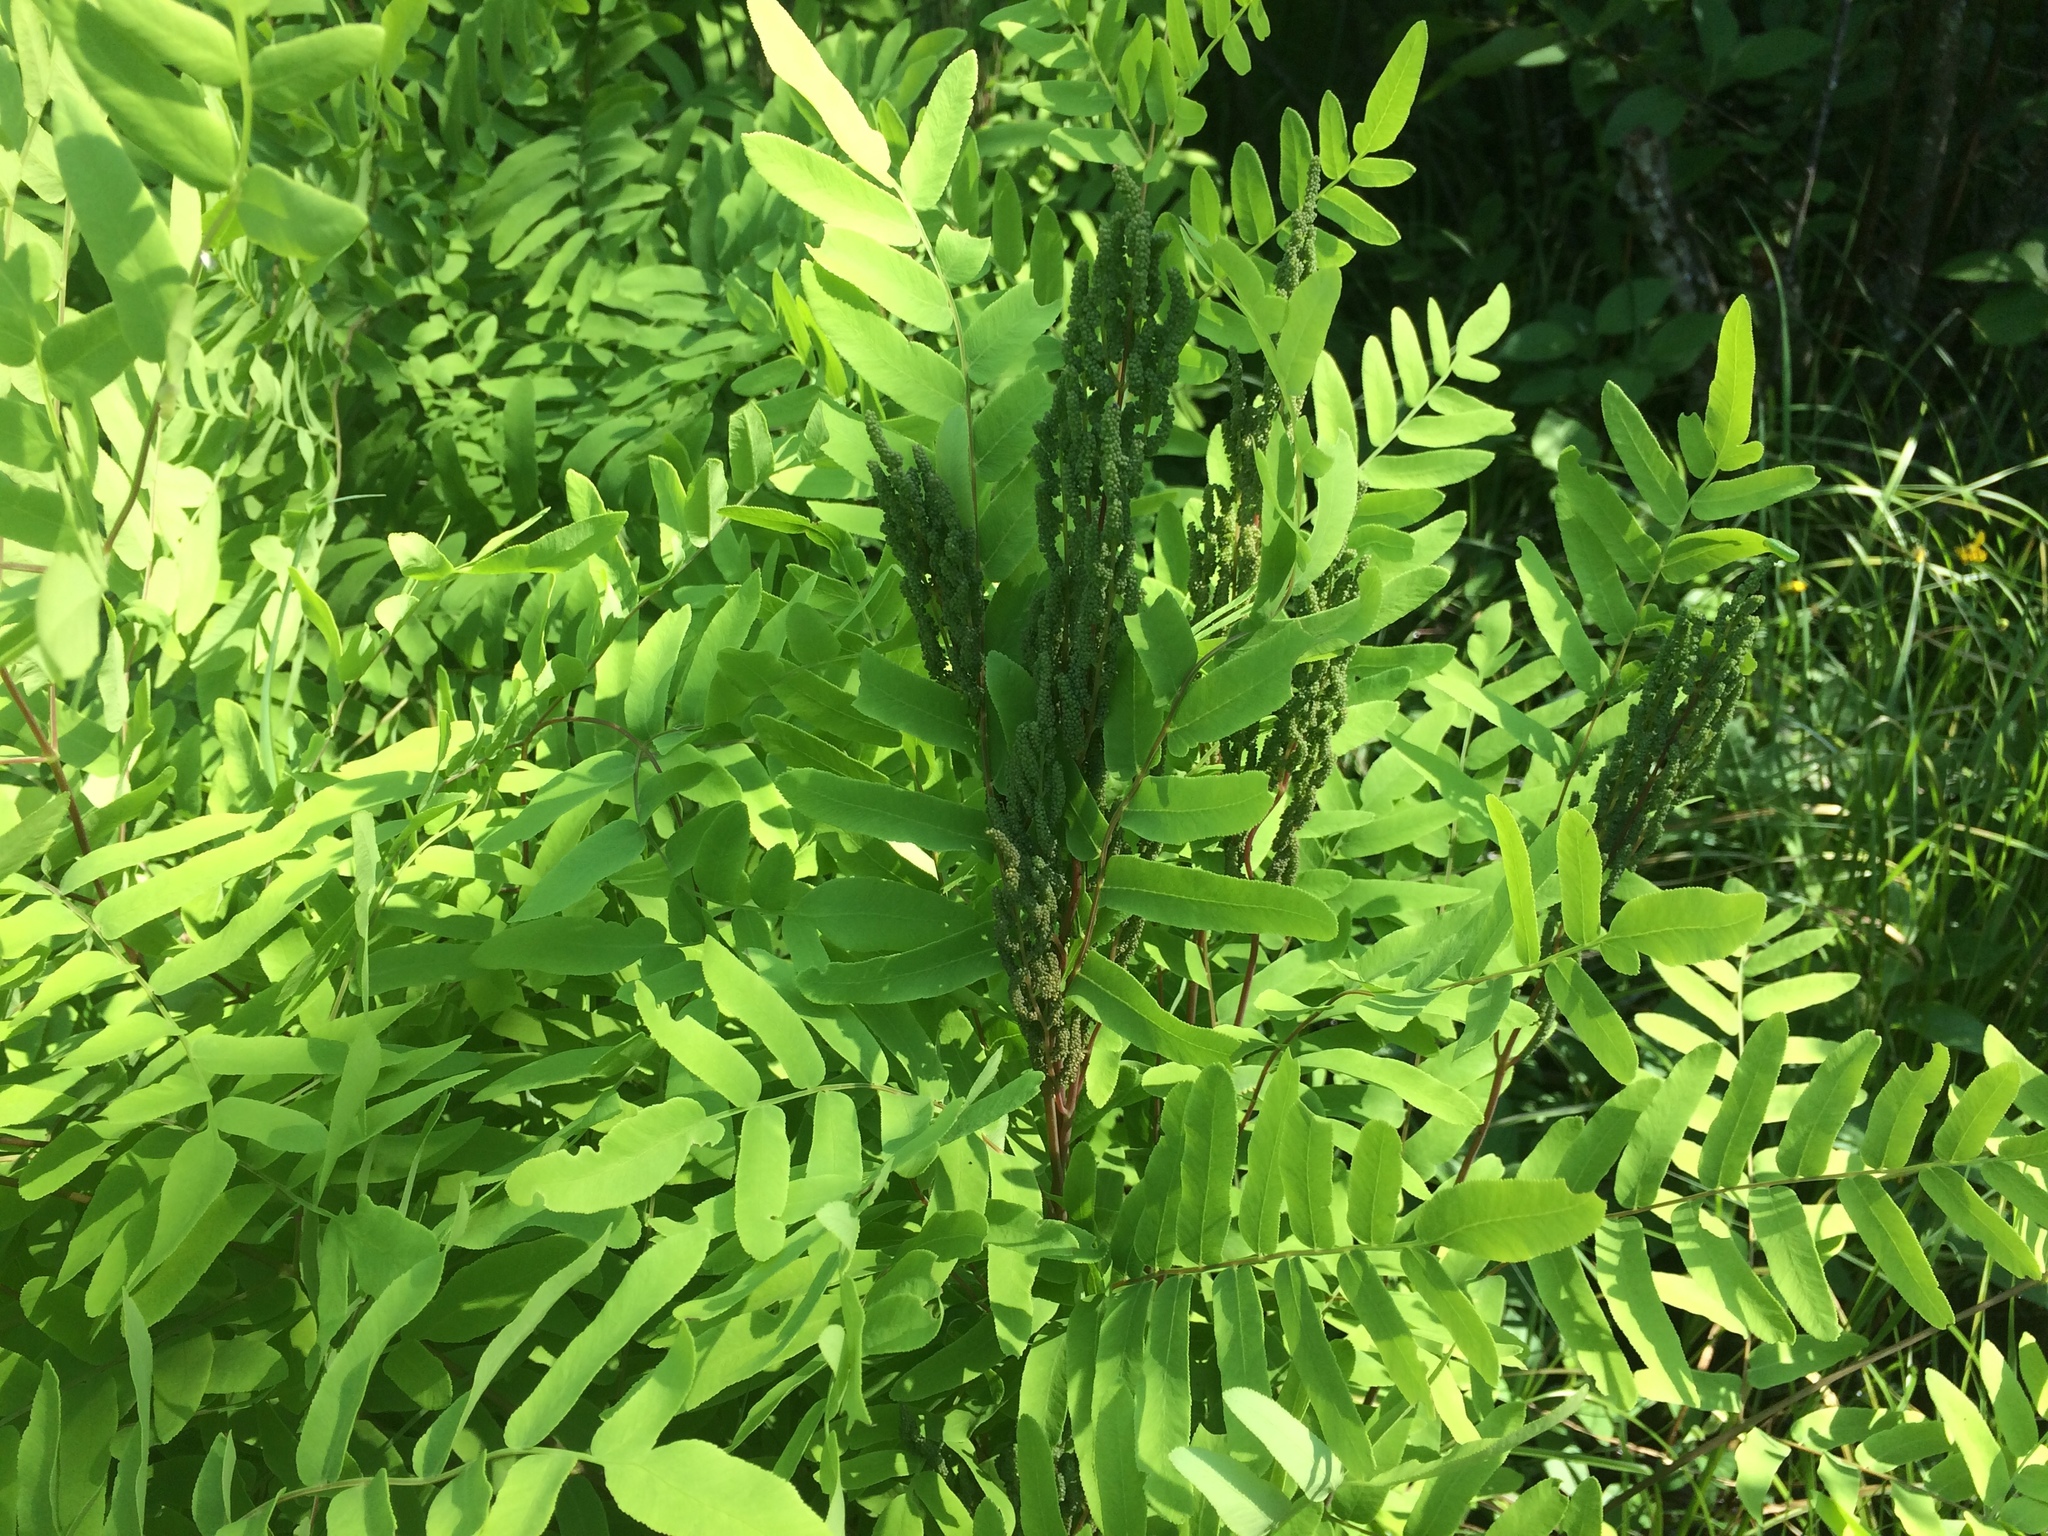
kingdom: Plantae
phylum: Tracheophyta
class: Polypodiopsida
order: Osmundales
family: Osmundaceae
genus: Osmunda
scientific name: Osmunda spectabilis
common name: American royal fern
